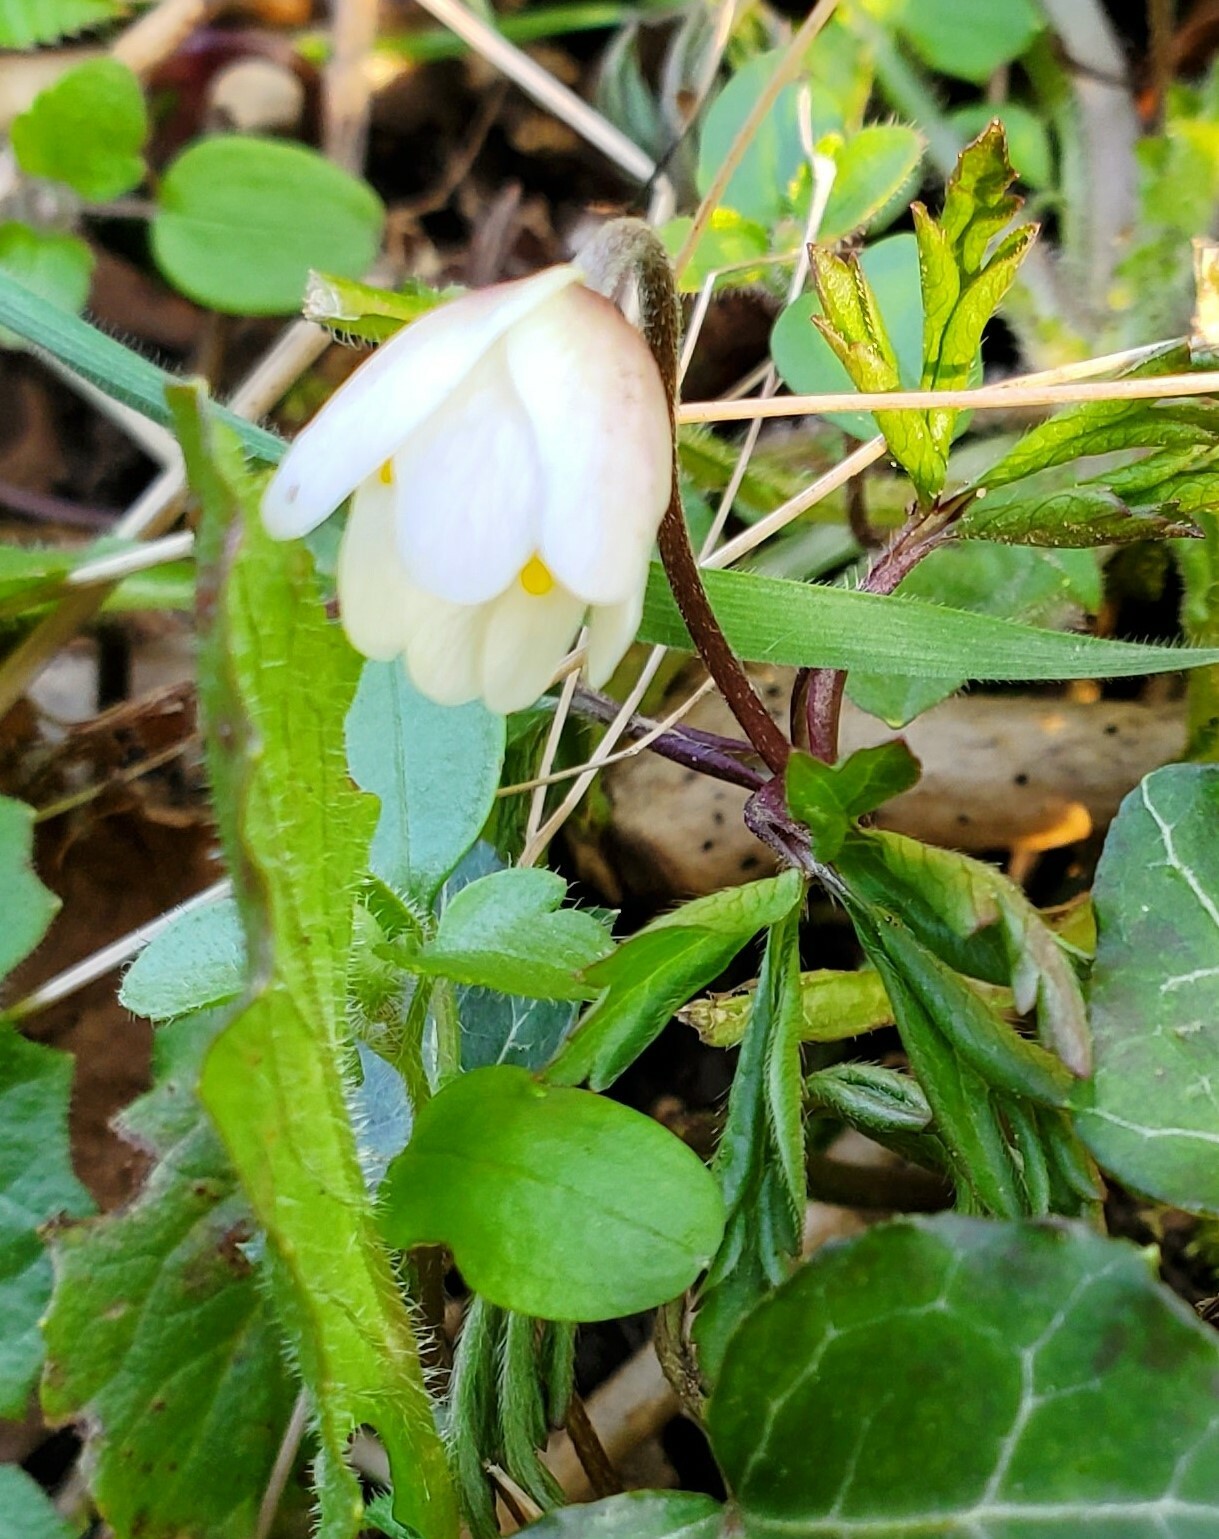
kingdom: Plantae
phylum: Tracheophyta
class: Magnoliopsida
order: Ranunculales
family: Ranunculaceae
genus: Anemone
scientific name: Anemone nemorosa
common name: Wood anemone
